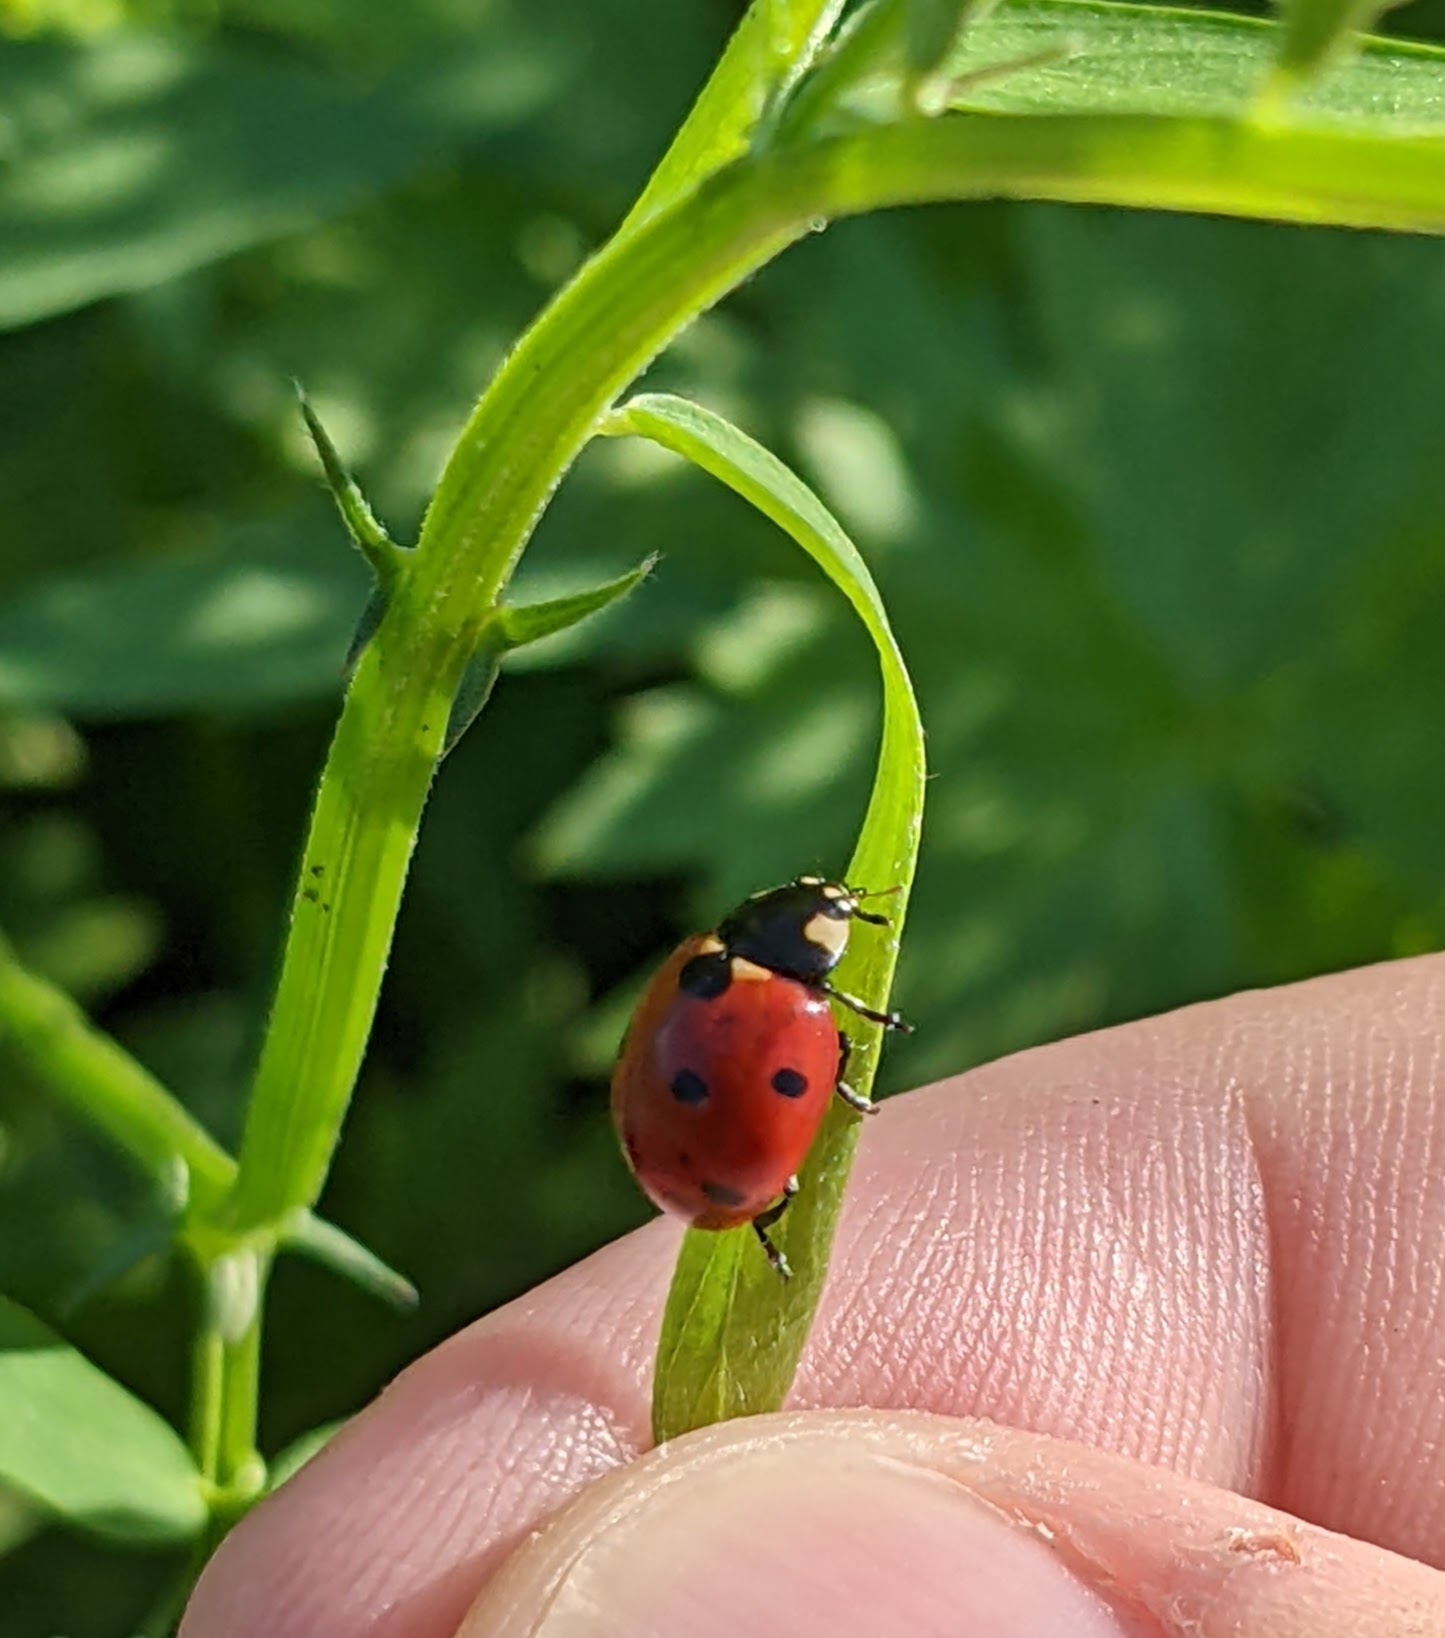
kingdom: Animalia
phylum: Arthropoda
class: Insecta
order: Coleoptera
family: Coccinellidae
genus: Coccinella
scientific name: Coccinella septempunctata
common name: Sevenspotted lady beetle
